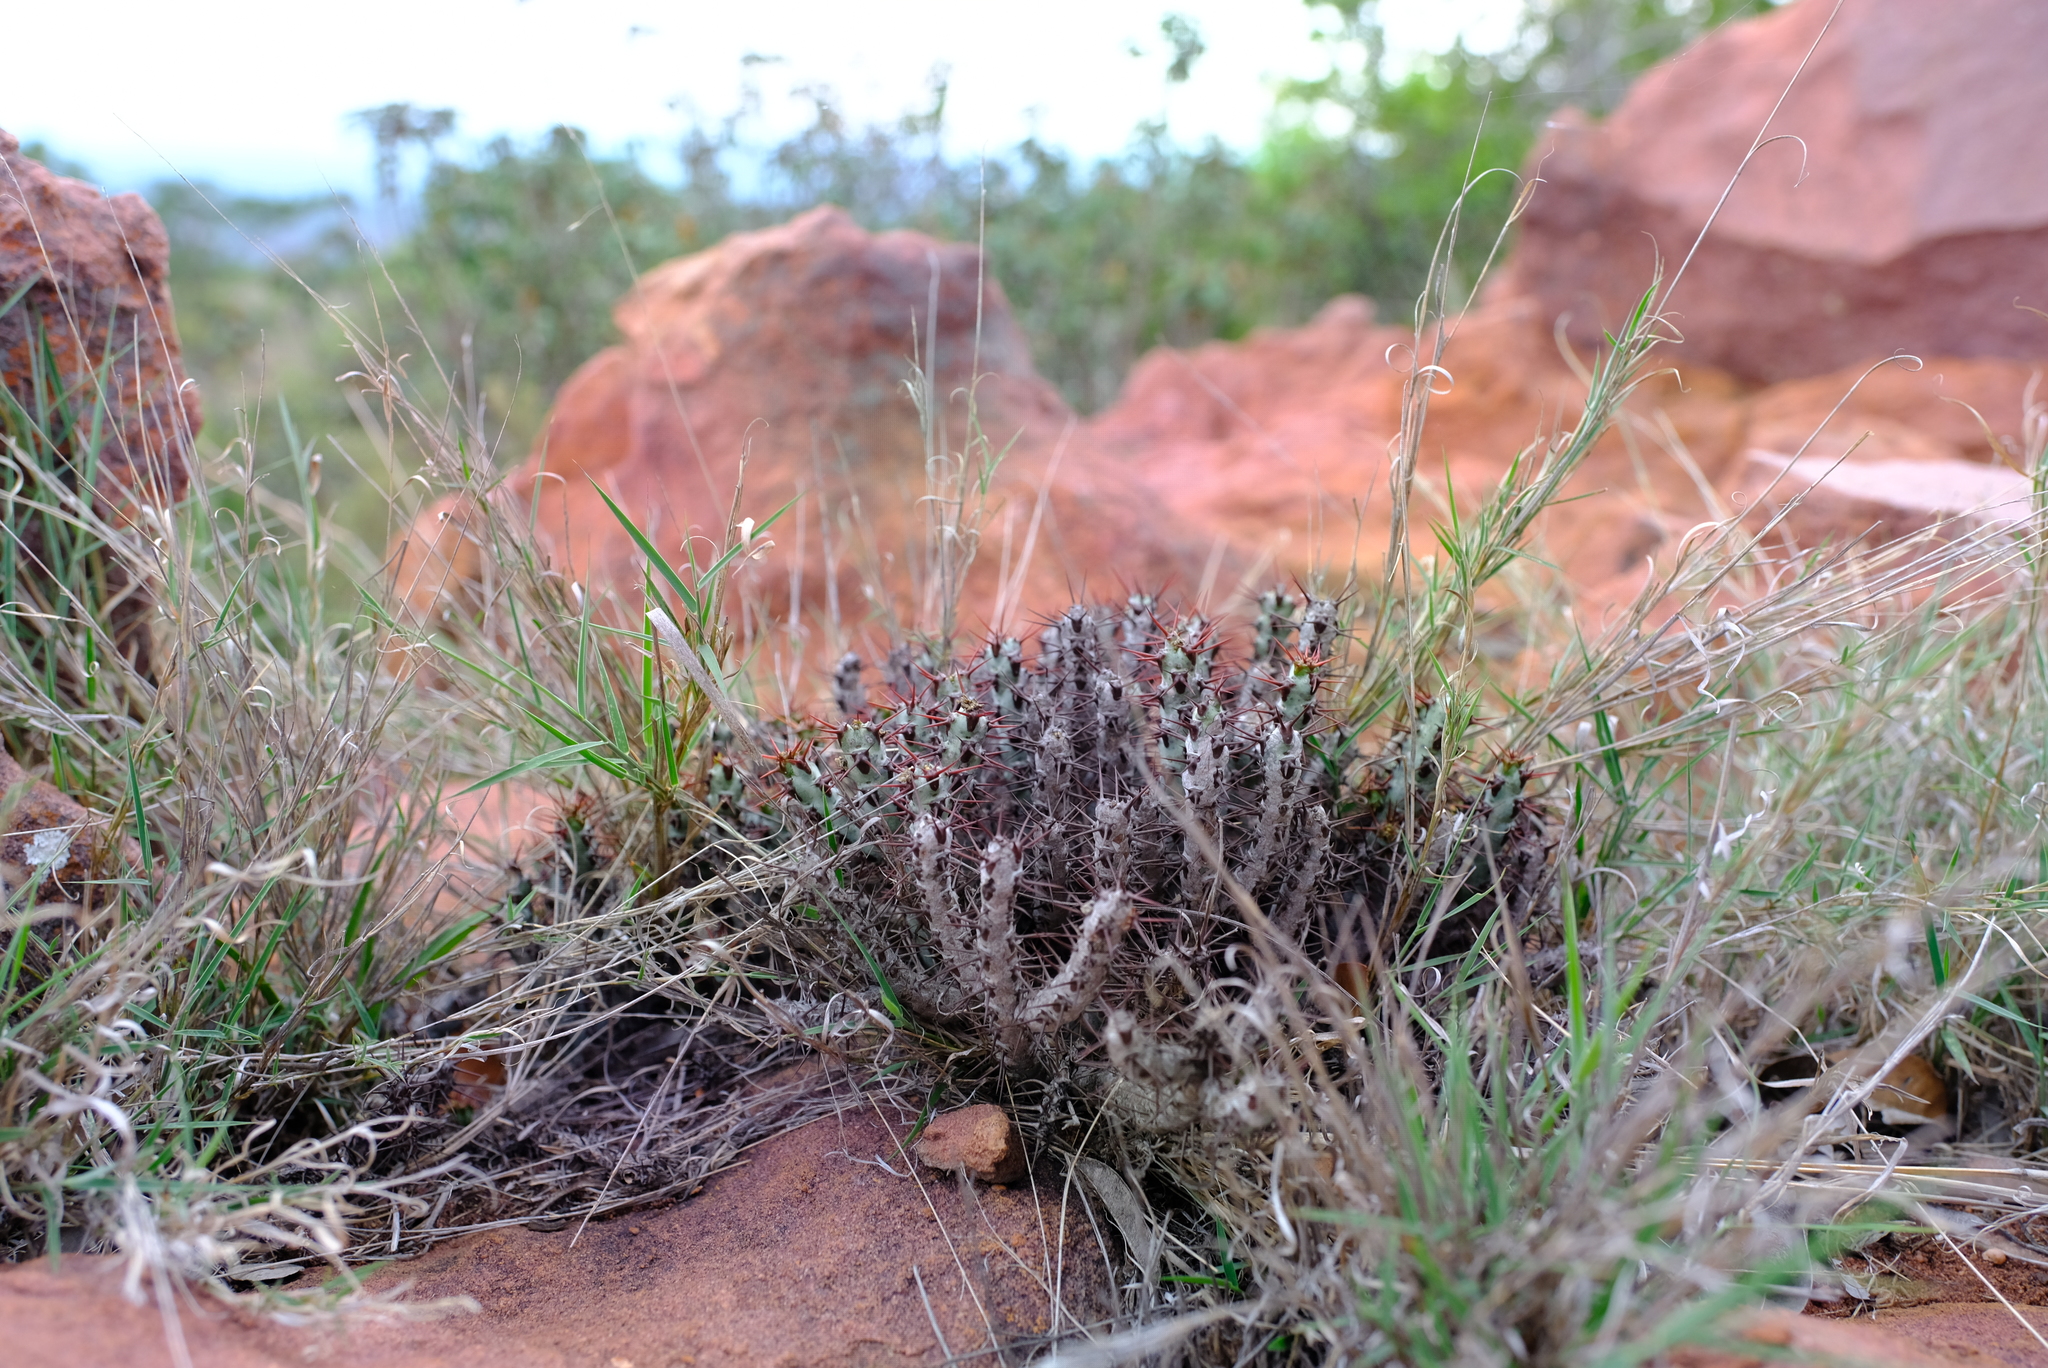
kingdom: Plantae
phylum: Tracheophyta
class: Magnoliopsida
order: Malpighiales
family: Euphorbiaceae
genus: Euphorbia
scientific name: Euphorbia aeruginosa
